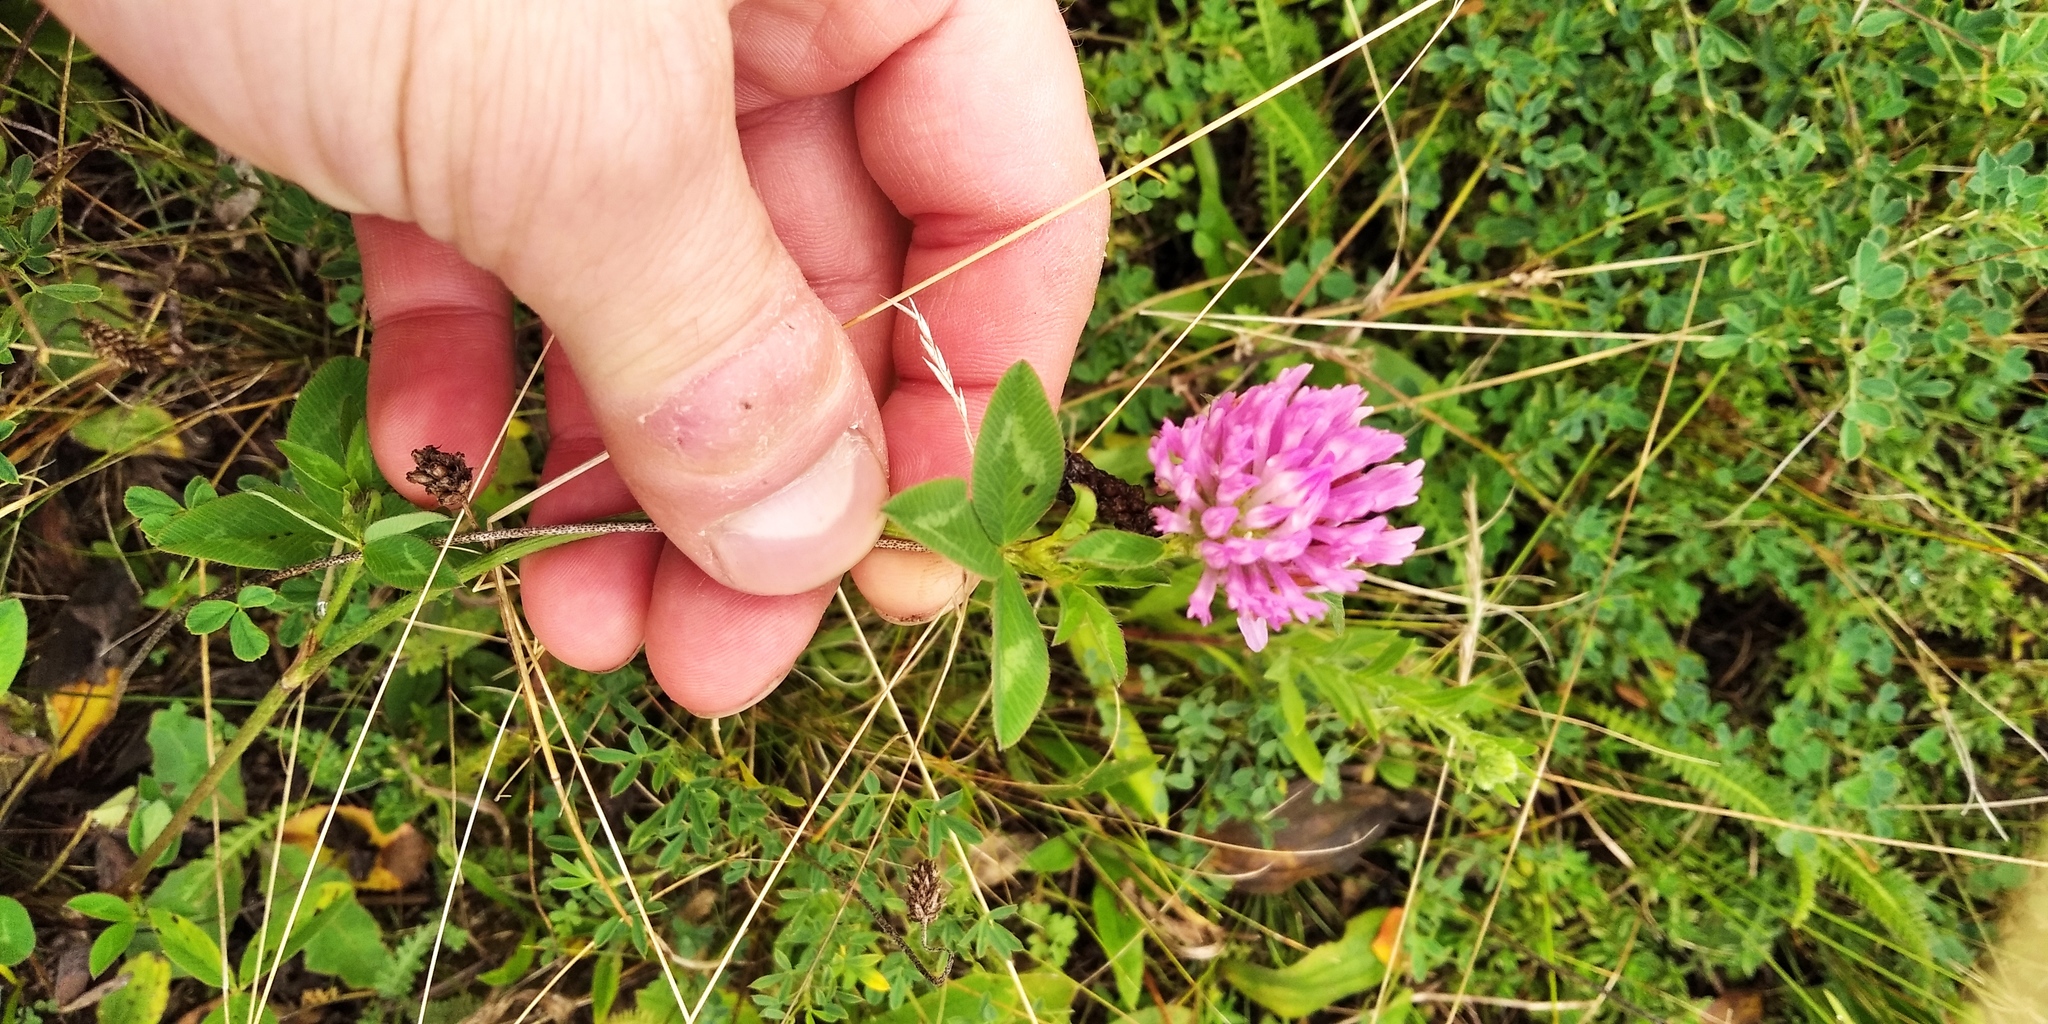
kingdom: Plantae
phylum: Tracheophyta
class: Magnoliopsida
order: Fabales
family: Fabaceae
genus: Trifolium
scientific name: Trifolium pratense
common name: Red clover
